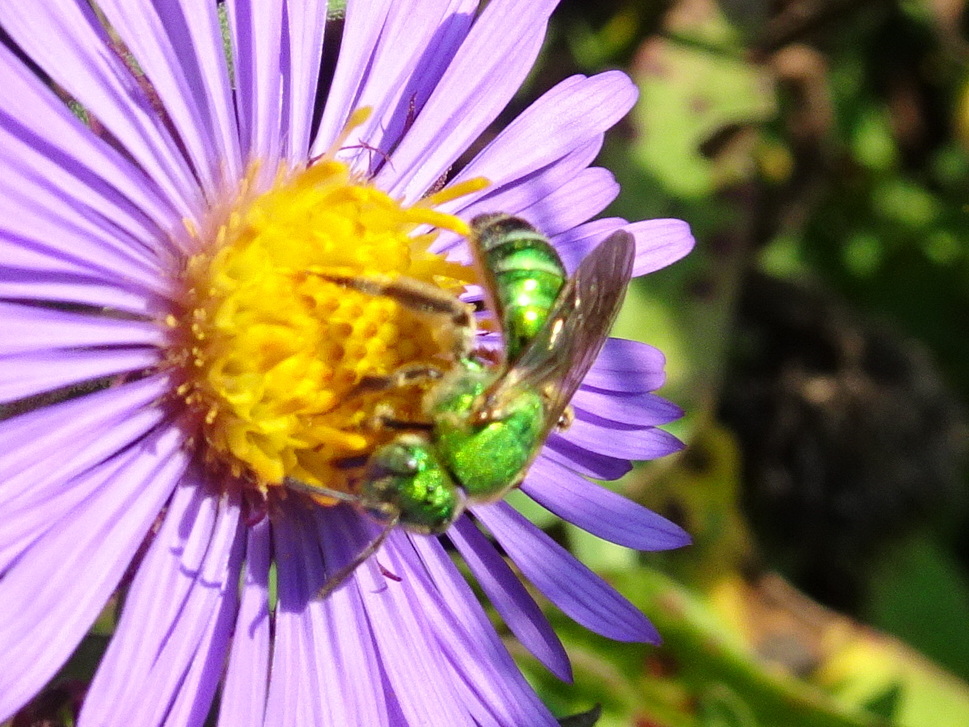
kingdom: Animalia
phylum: Arthropoda
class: Insecta
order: Hymenoptera
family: Halictidae
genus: Agapostemon
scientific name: Agapostemon sericeus
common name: Silky striped sweat bee
